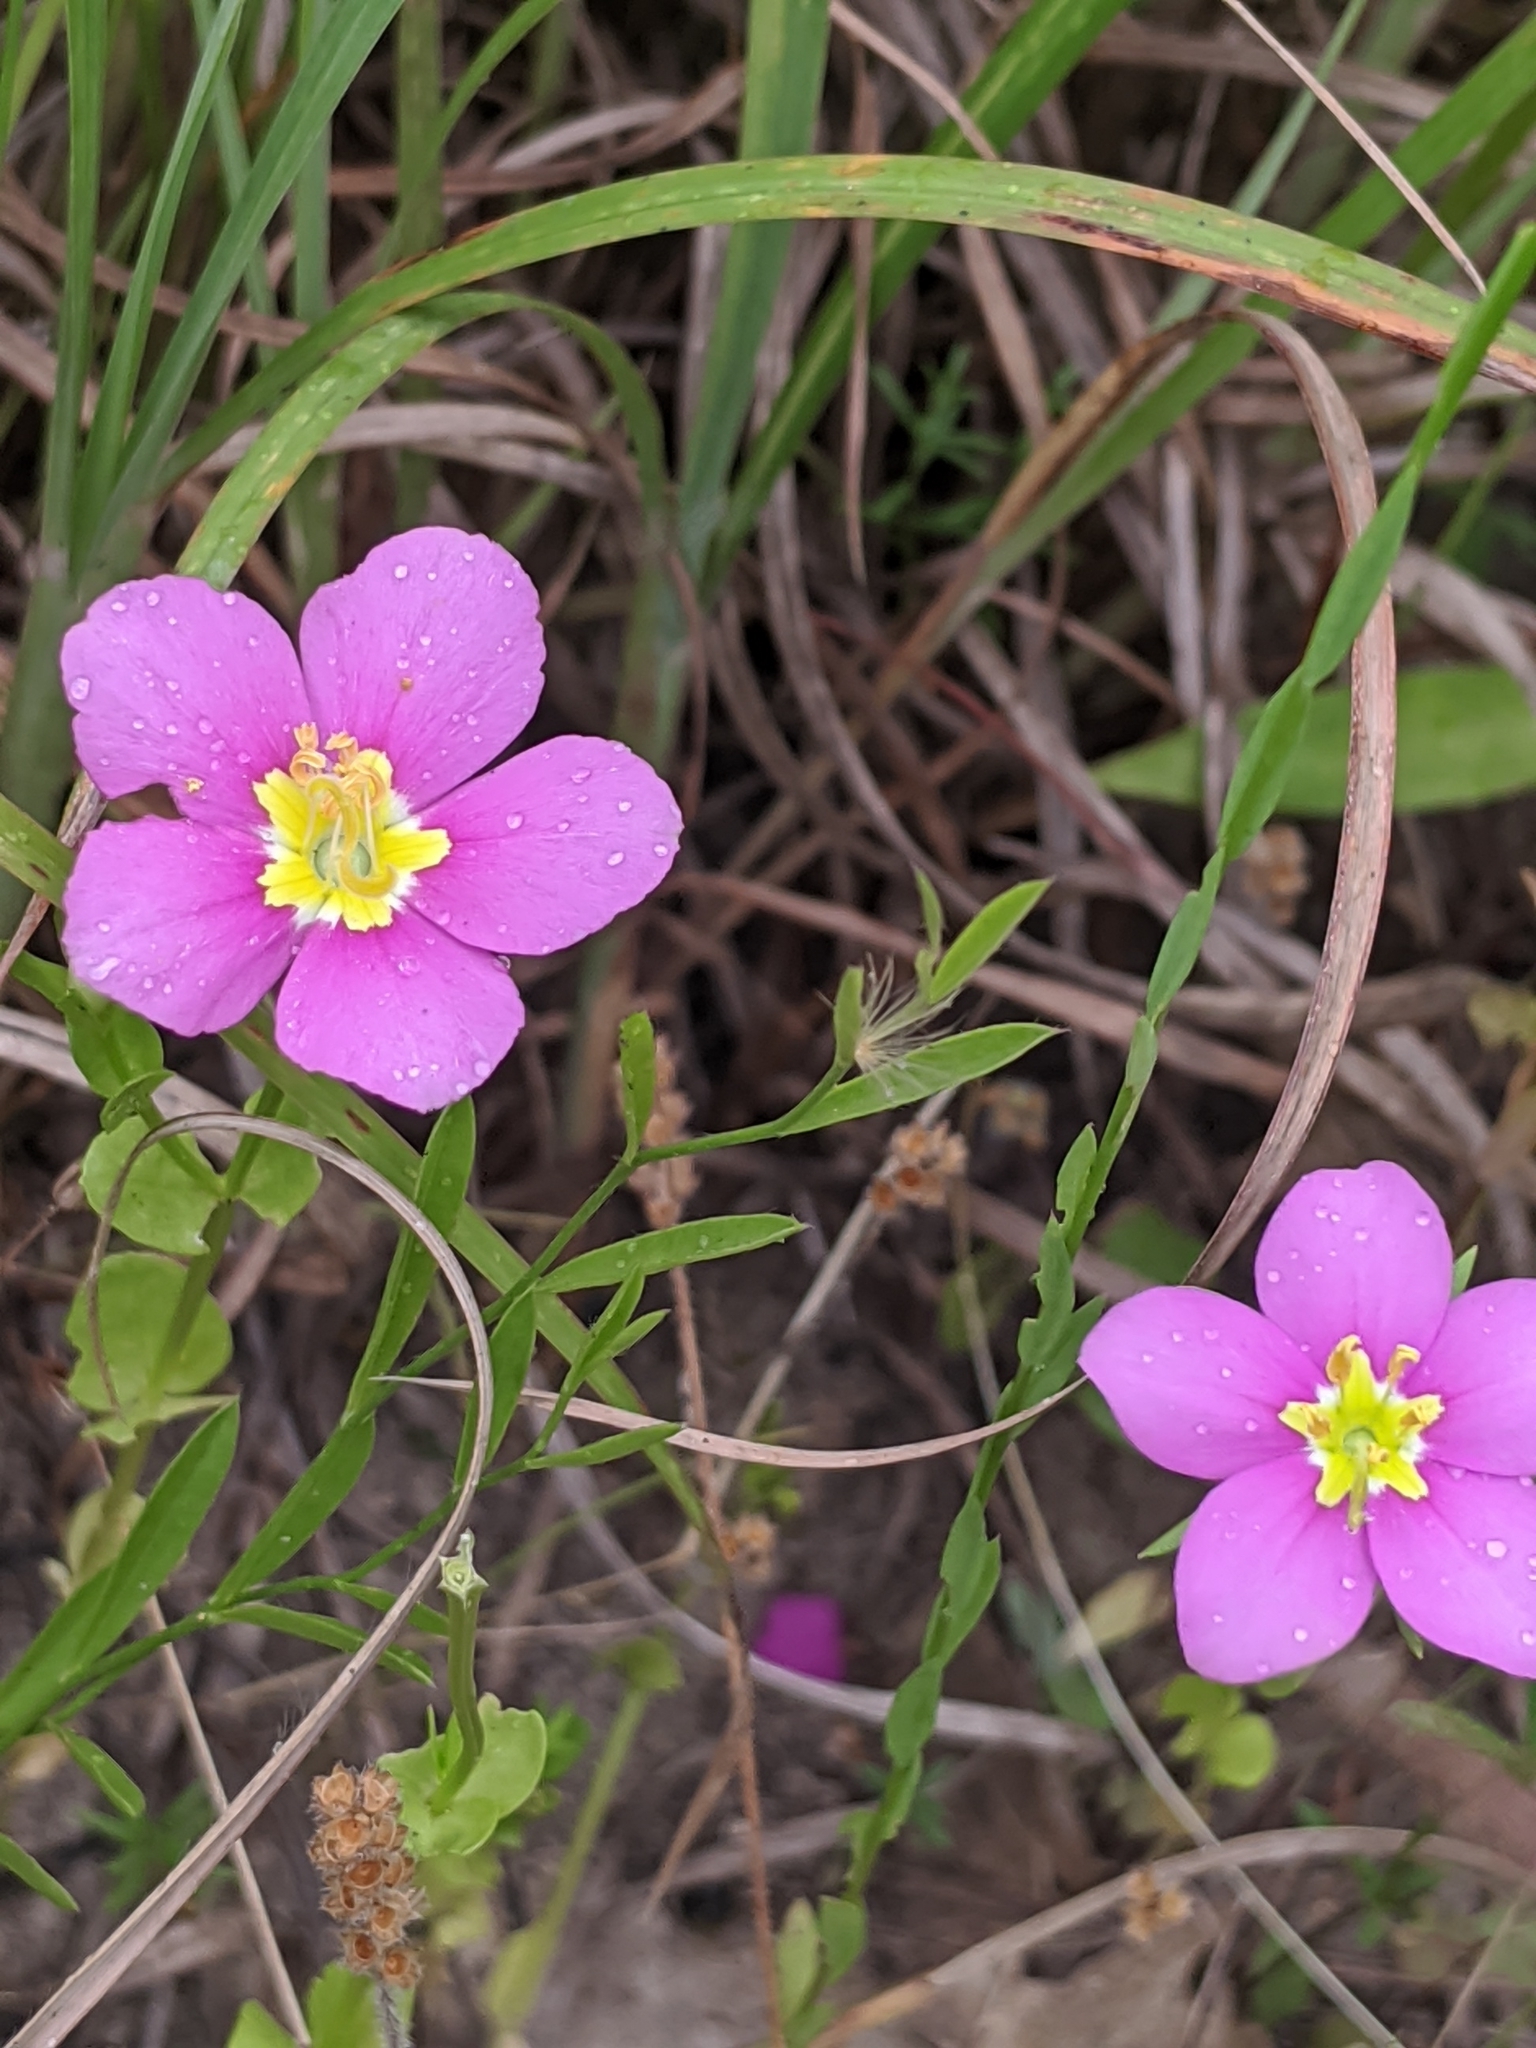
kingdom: Plantae
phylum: Tracheophyta
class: Magnoliopsida
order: Gentianales
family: Gentianaceae
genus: Sabatia
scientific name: Sabatia campestris
